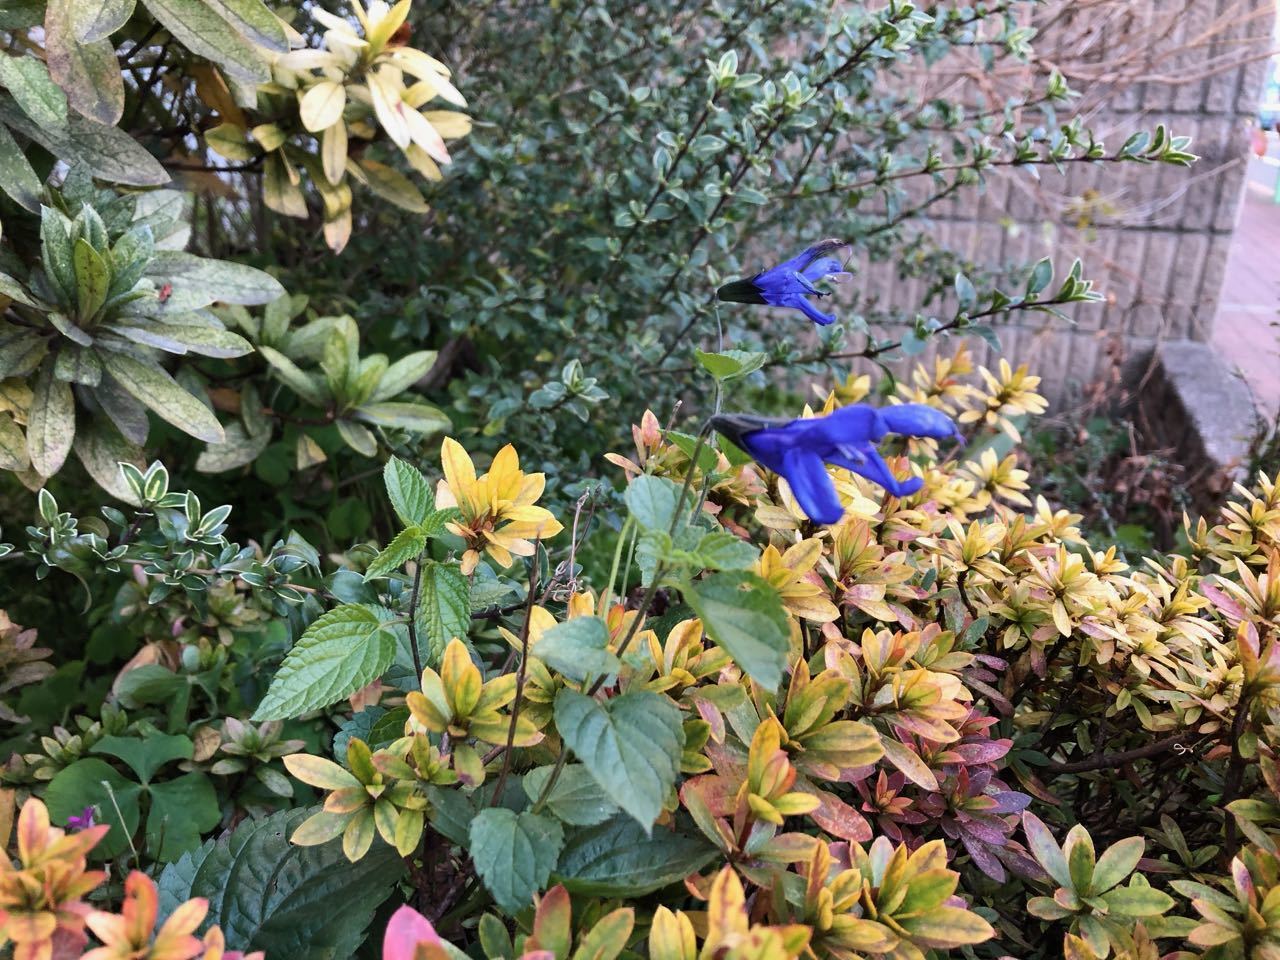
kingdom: Plantae
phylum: Tracheophyta
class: Magnoliopsida
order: Lamiales
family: Lamiaceae
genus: Salvia
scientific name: Salvia guaranitica
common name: Anise-scented sage
